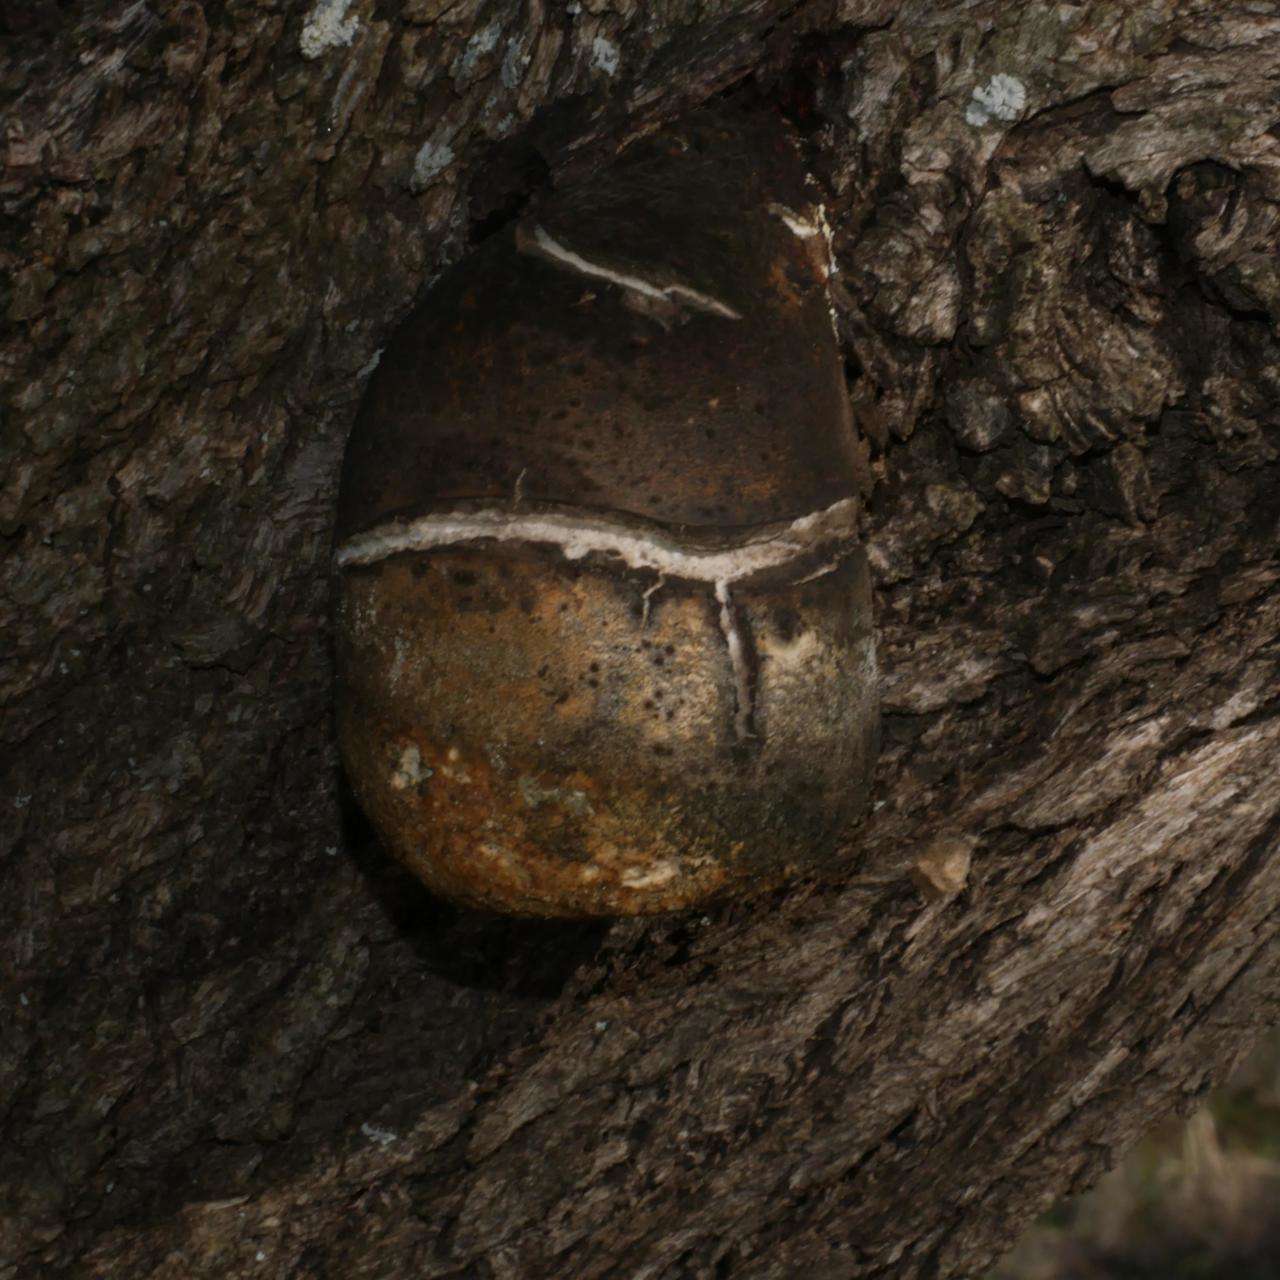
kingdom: Fungi
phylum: Basidiomycota
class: Agaricomycetes
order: Polyporales
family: Laetiporaceae
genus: Laetiporus
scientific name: Laetiporus portentosus
